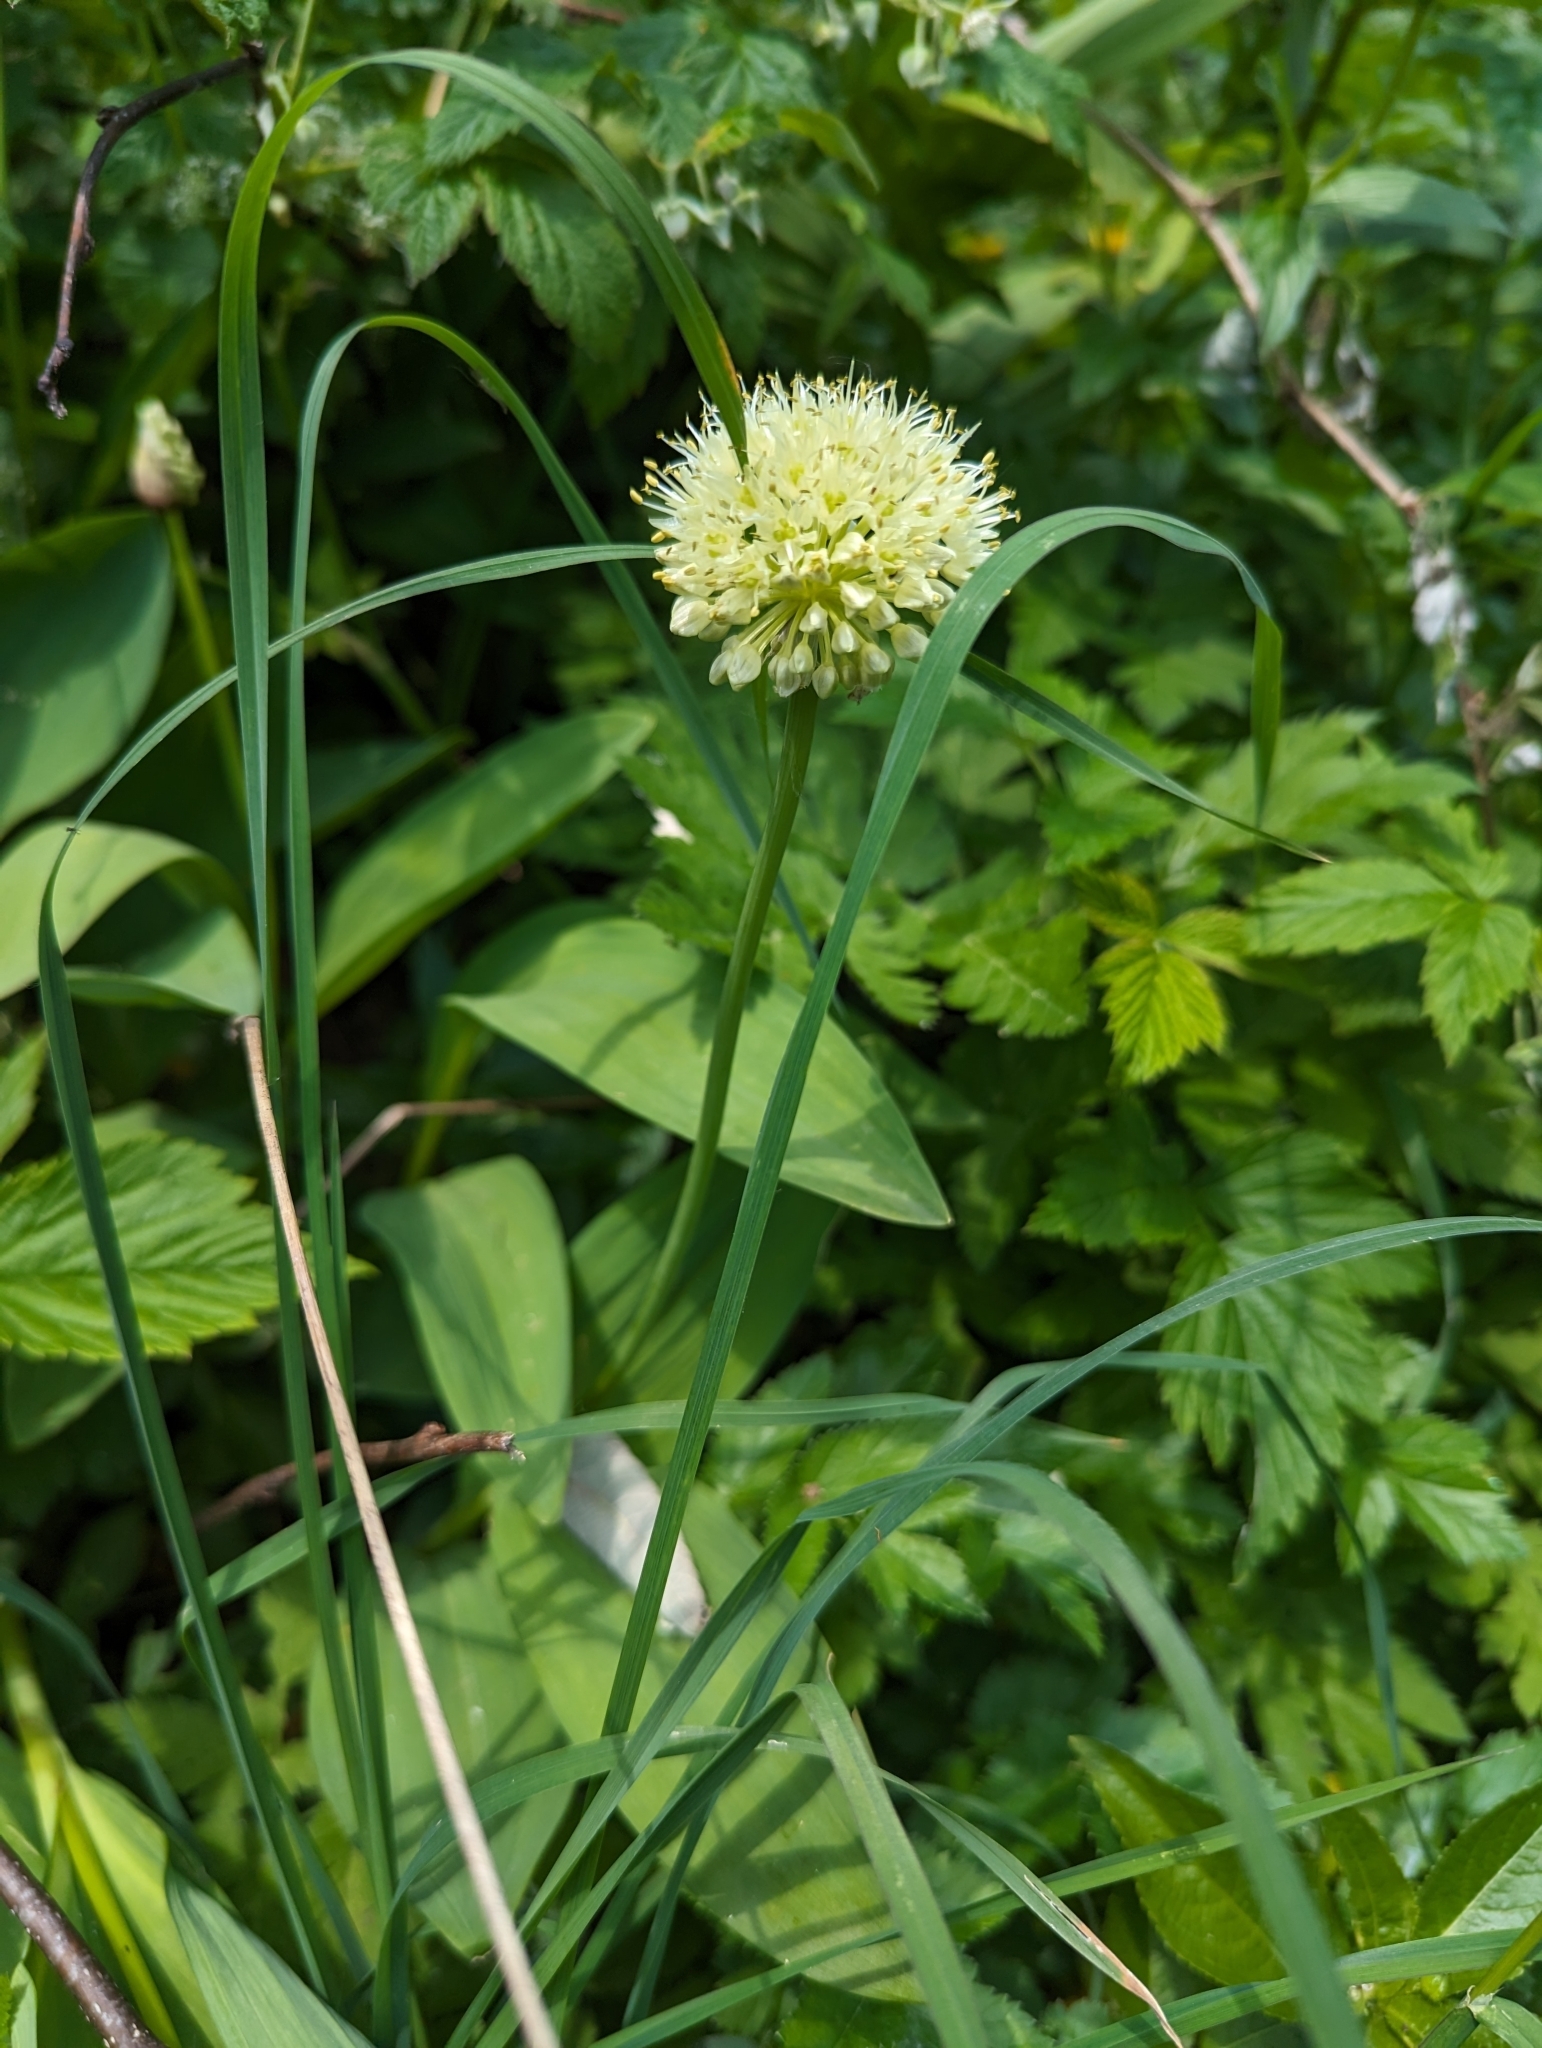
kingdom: Plantae
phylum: Tracheophyta
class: Liliopsida
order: Asparagales
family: Amaryllidaceae
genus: Allium
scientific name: Allium victorialis
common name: Alpine leek
